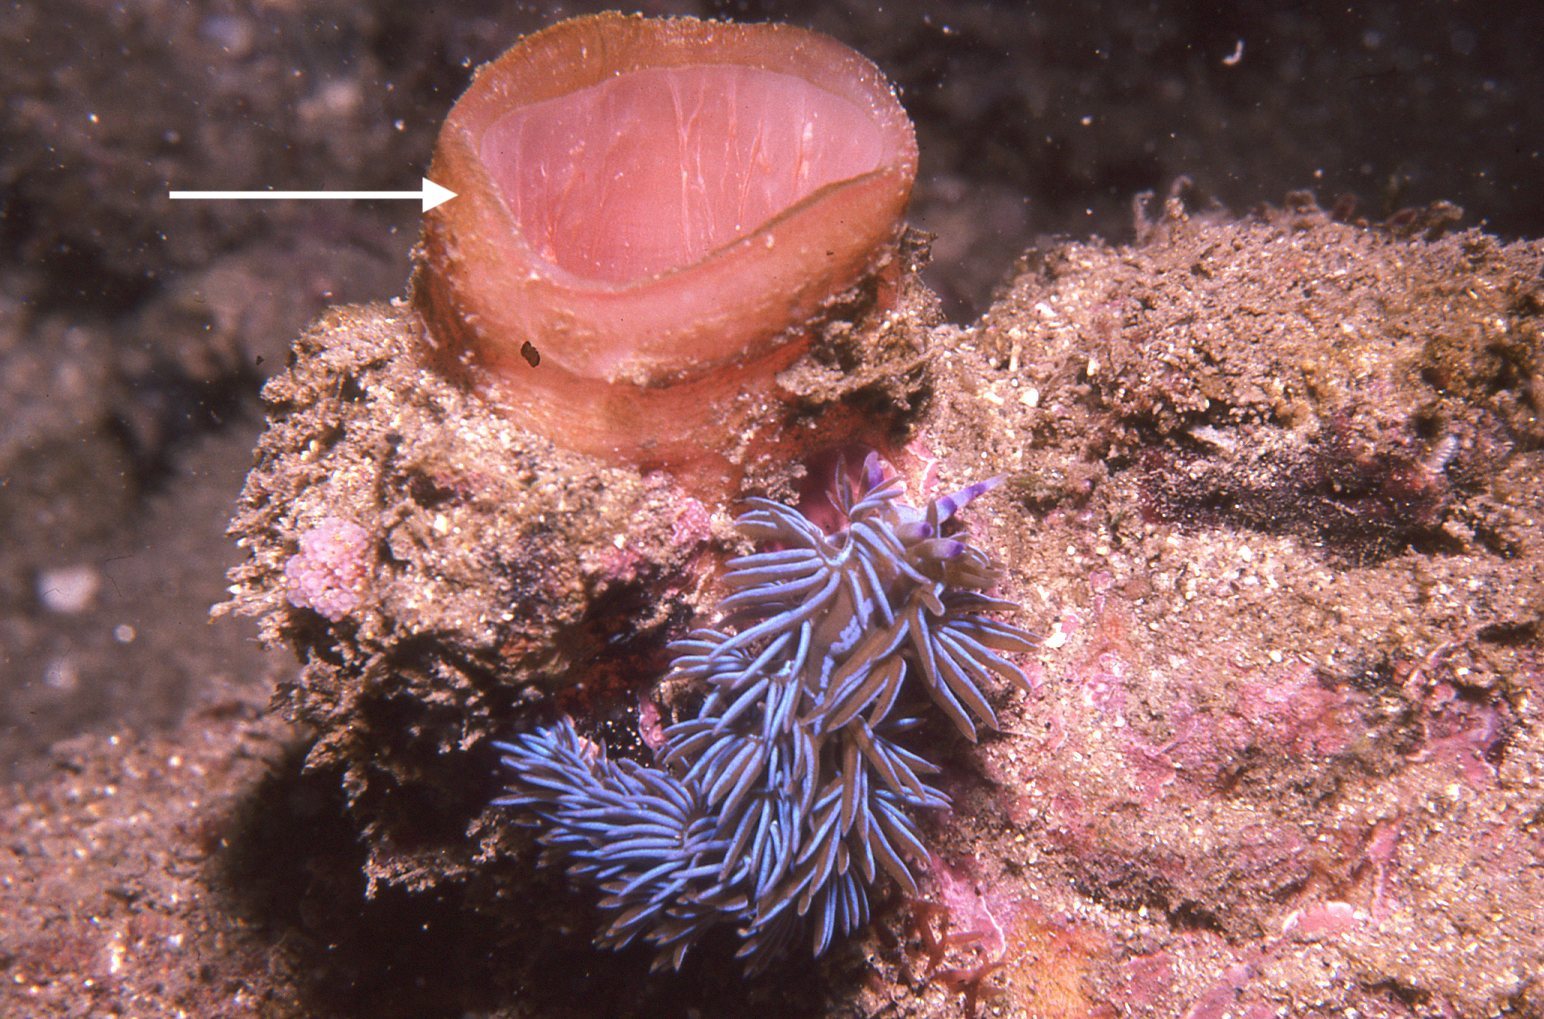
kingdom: Animalia
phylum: Chordata
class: Ascidiacea
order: Stolidobranchia
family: Pyuridae
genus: Herdmania
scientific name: Herdmania grandis
